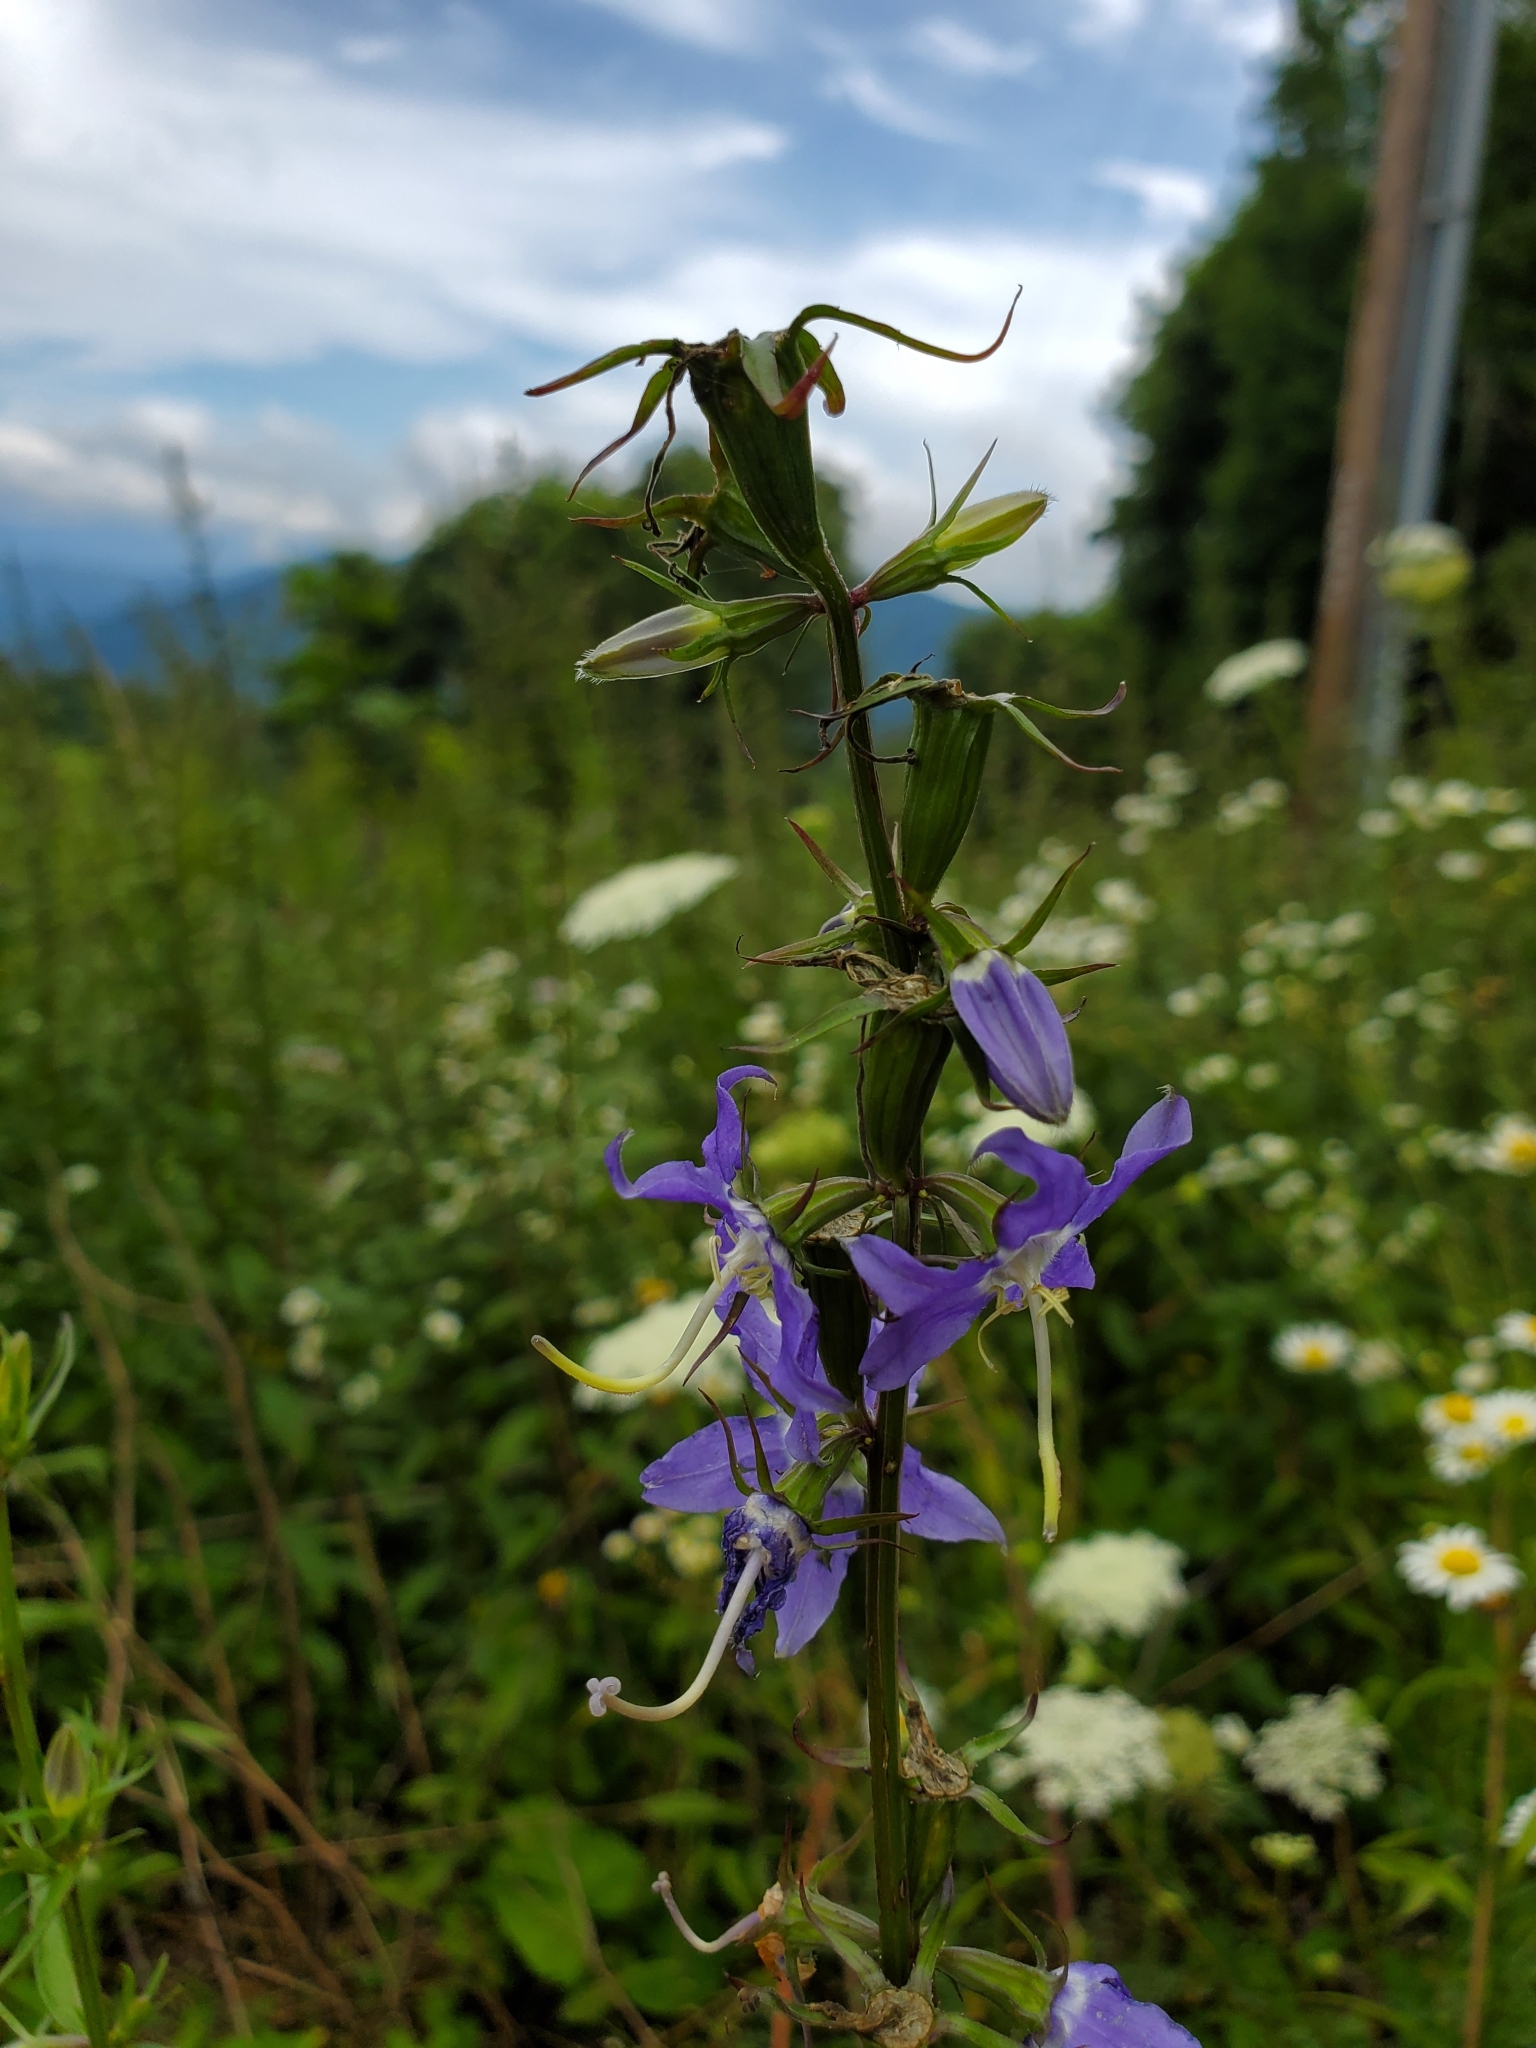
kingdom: Plantae
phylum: Tracheophyta
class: Magnoliopsida
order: Asterales
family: Campanulaceae
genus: Campanulastrum
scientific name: Campanulastrum americanum
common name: American bellflower
